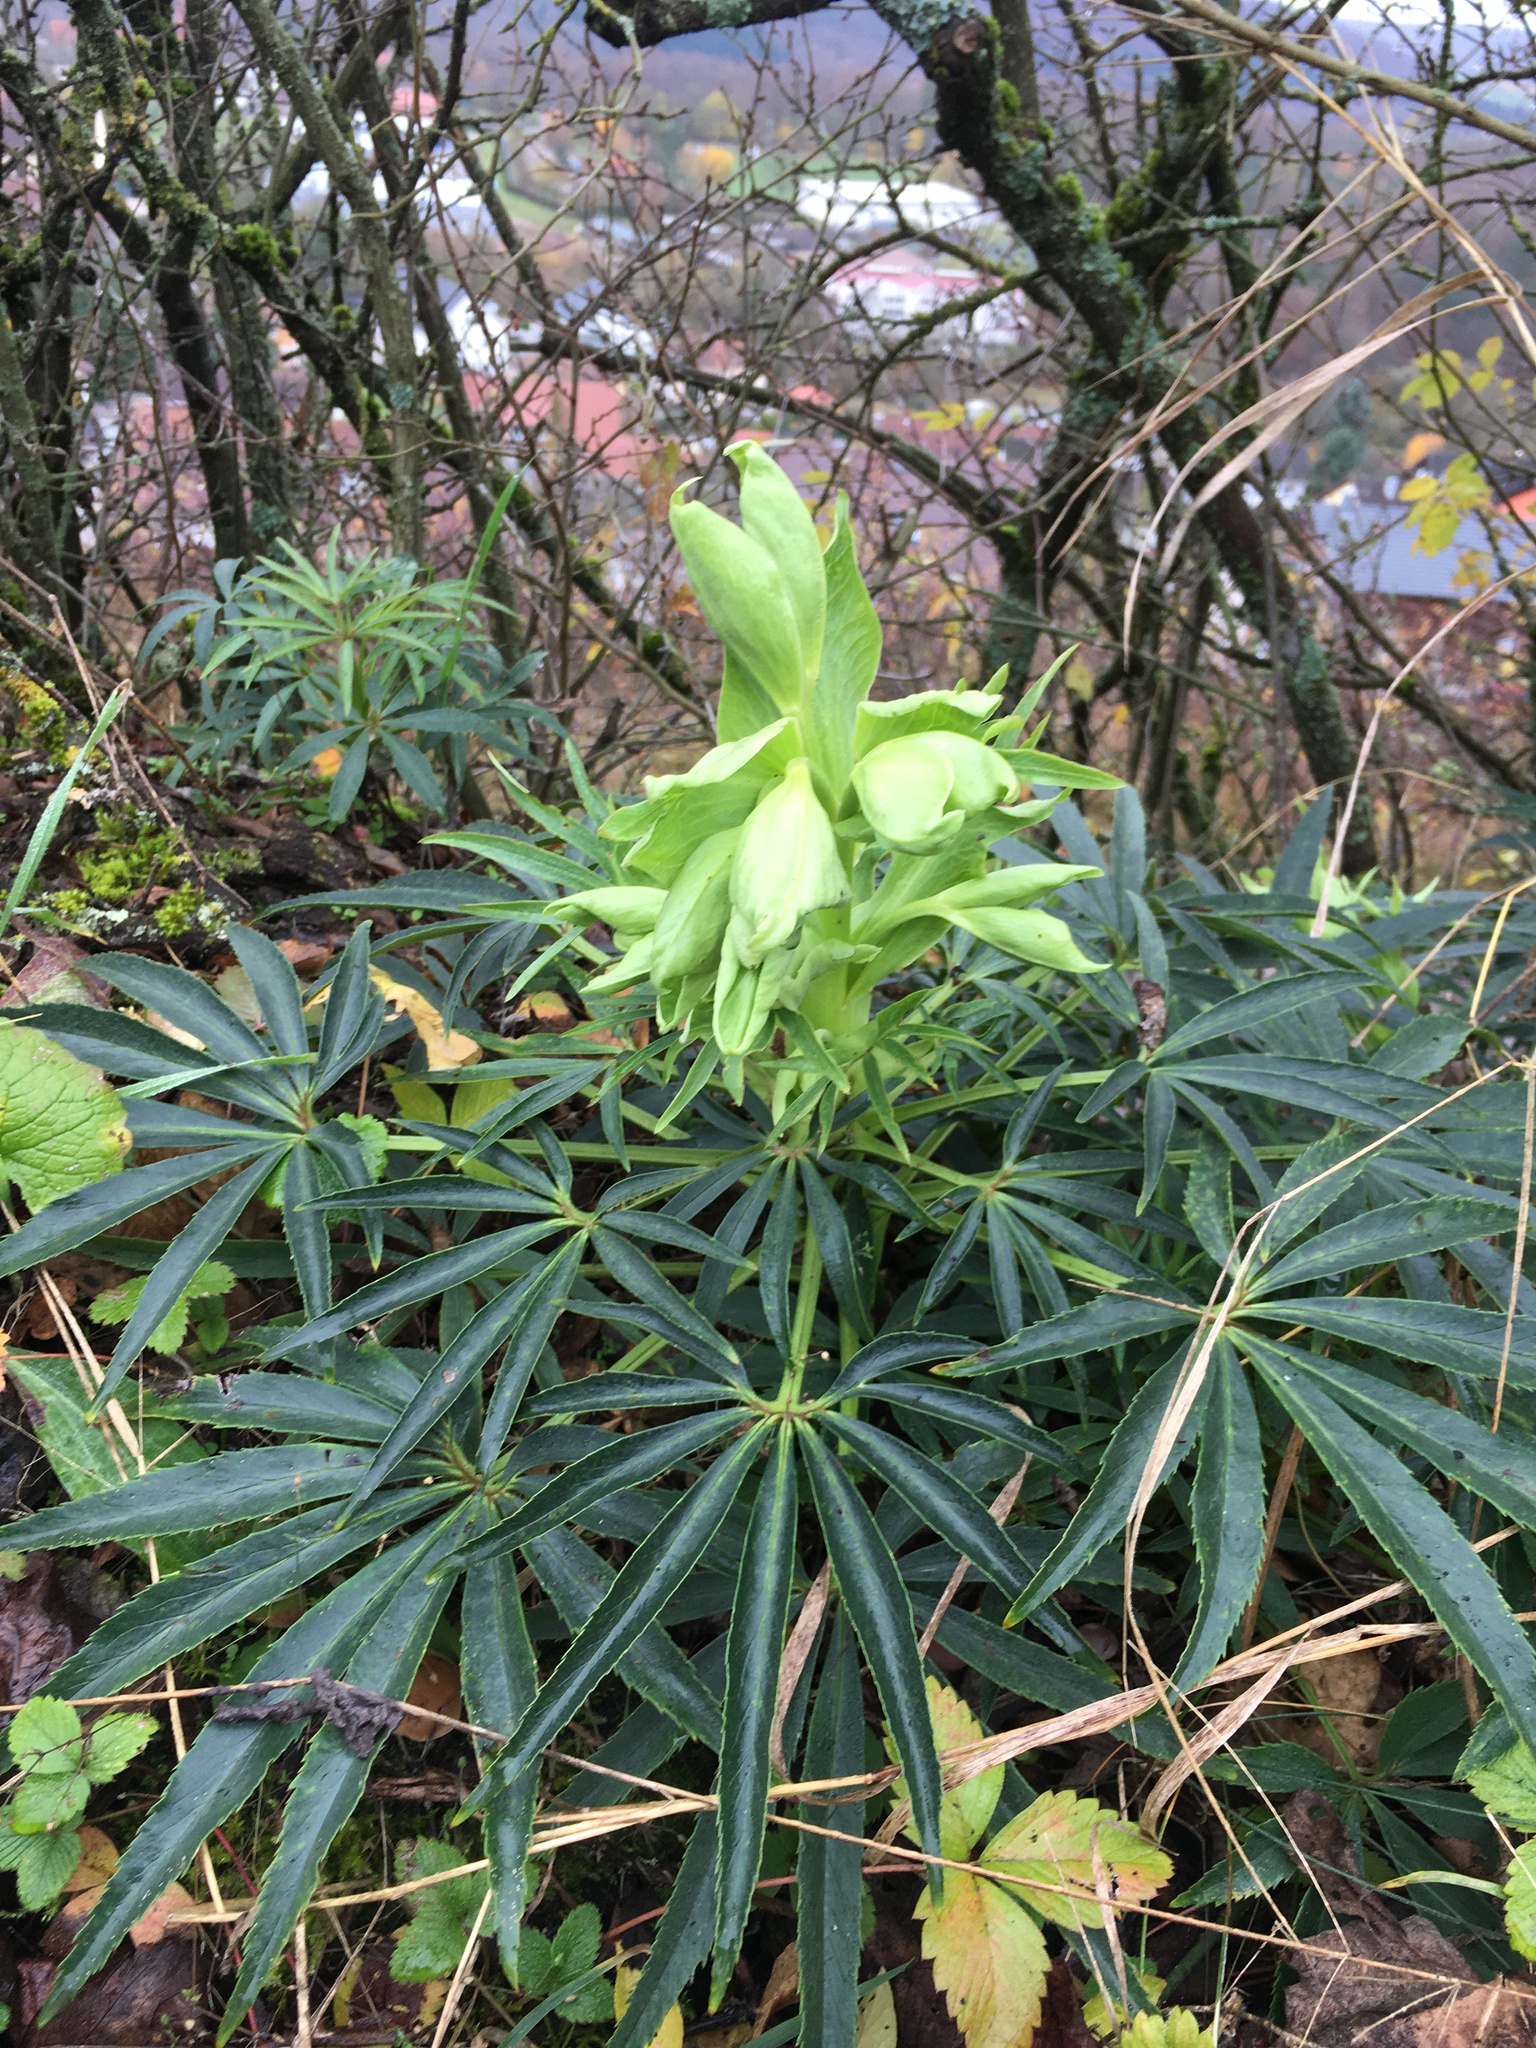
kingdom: Plantae
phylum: Tracheophyta
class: Magnoliopsida
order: Ranunculales
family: Ranunculaceae
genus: Helleborus
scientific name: Helleborus foetidus
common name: Stinking hellebore
